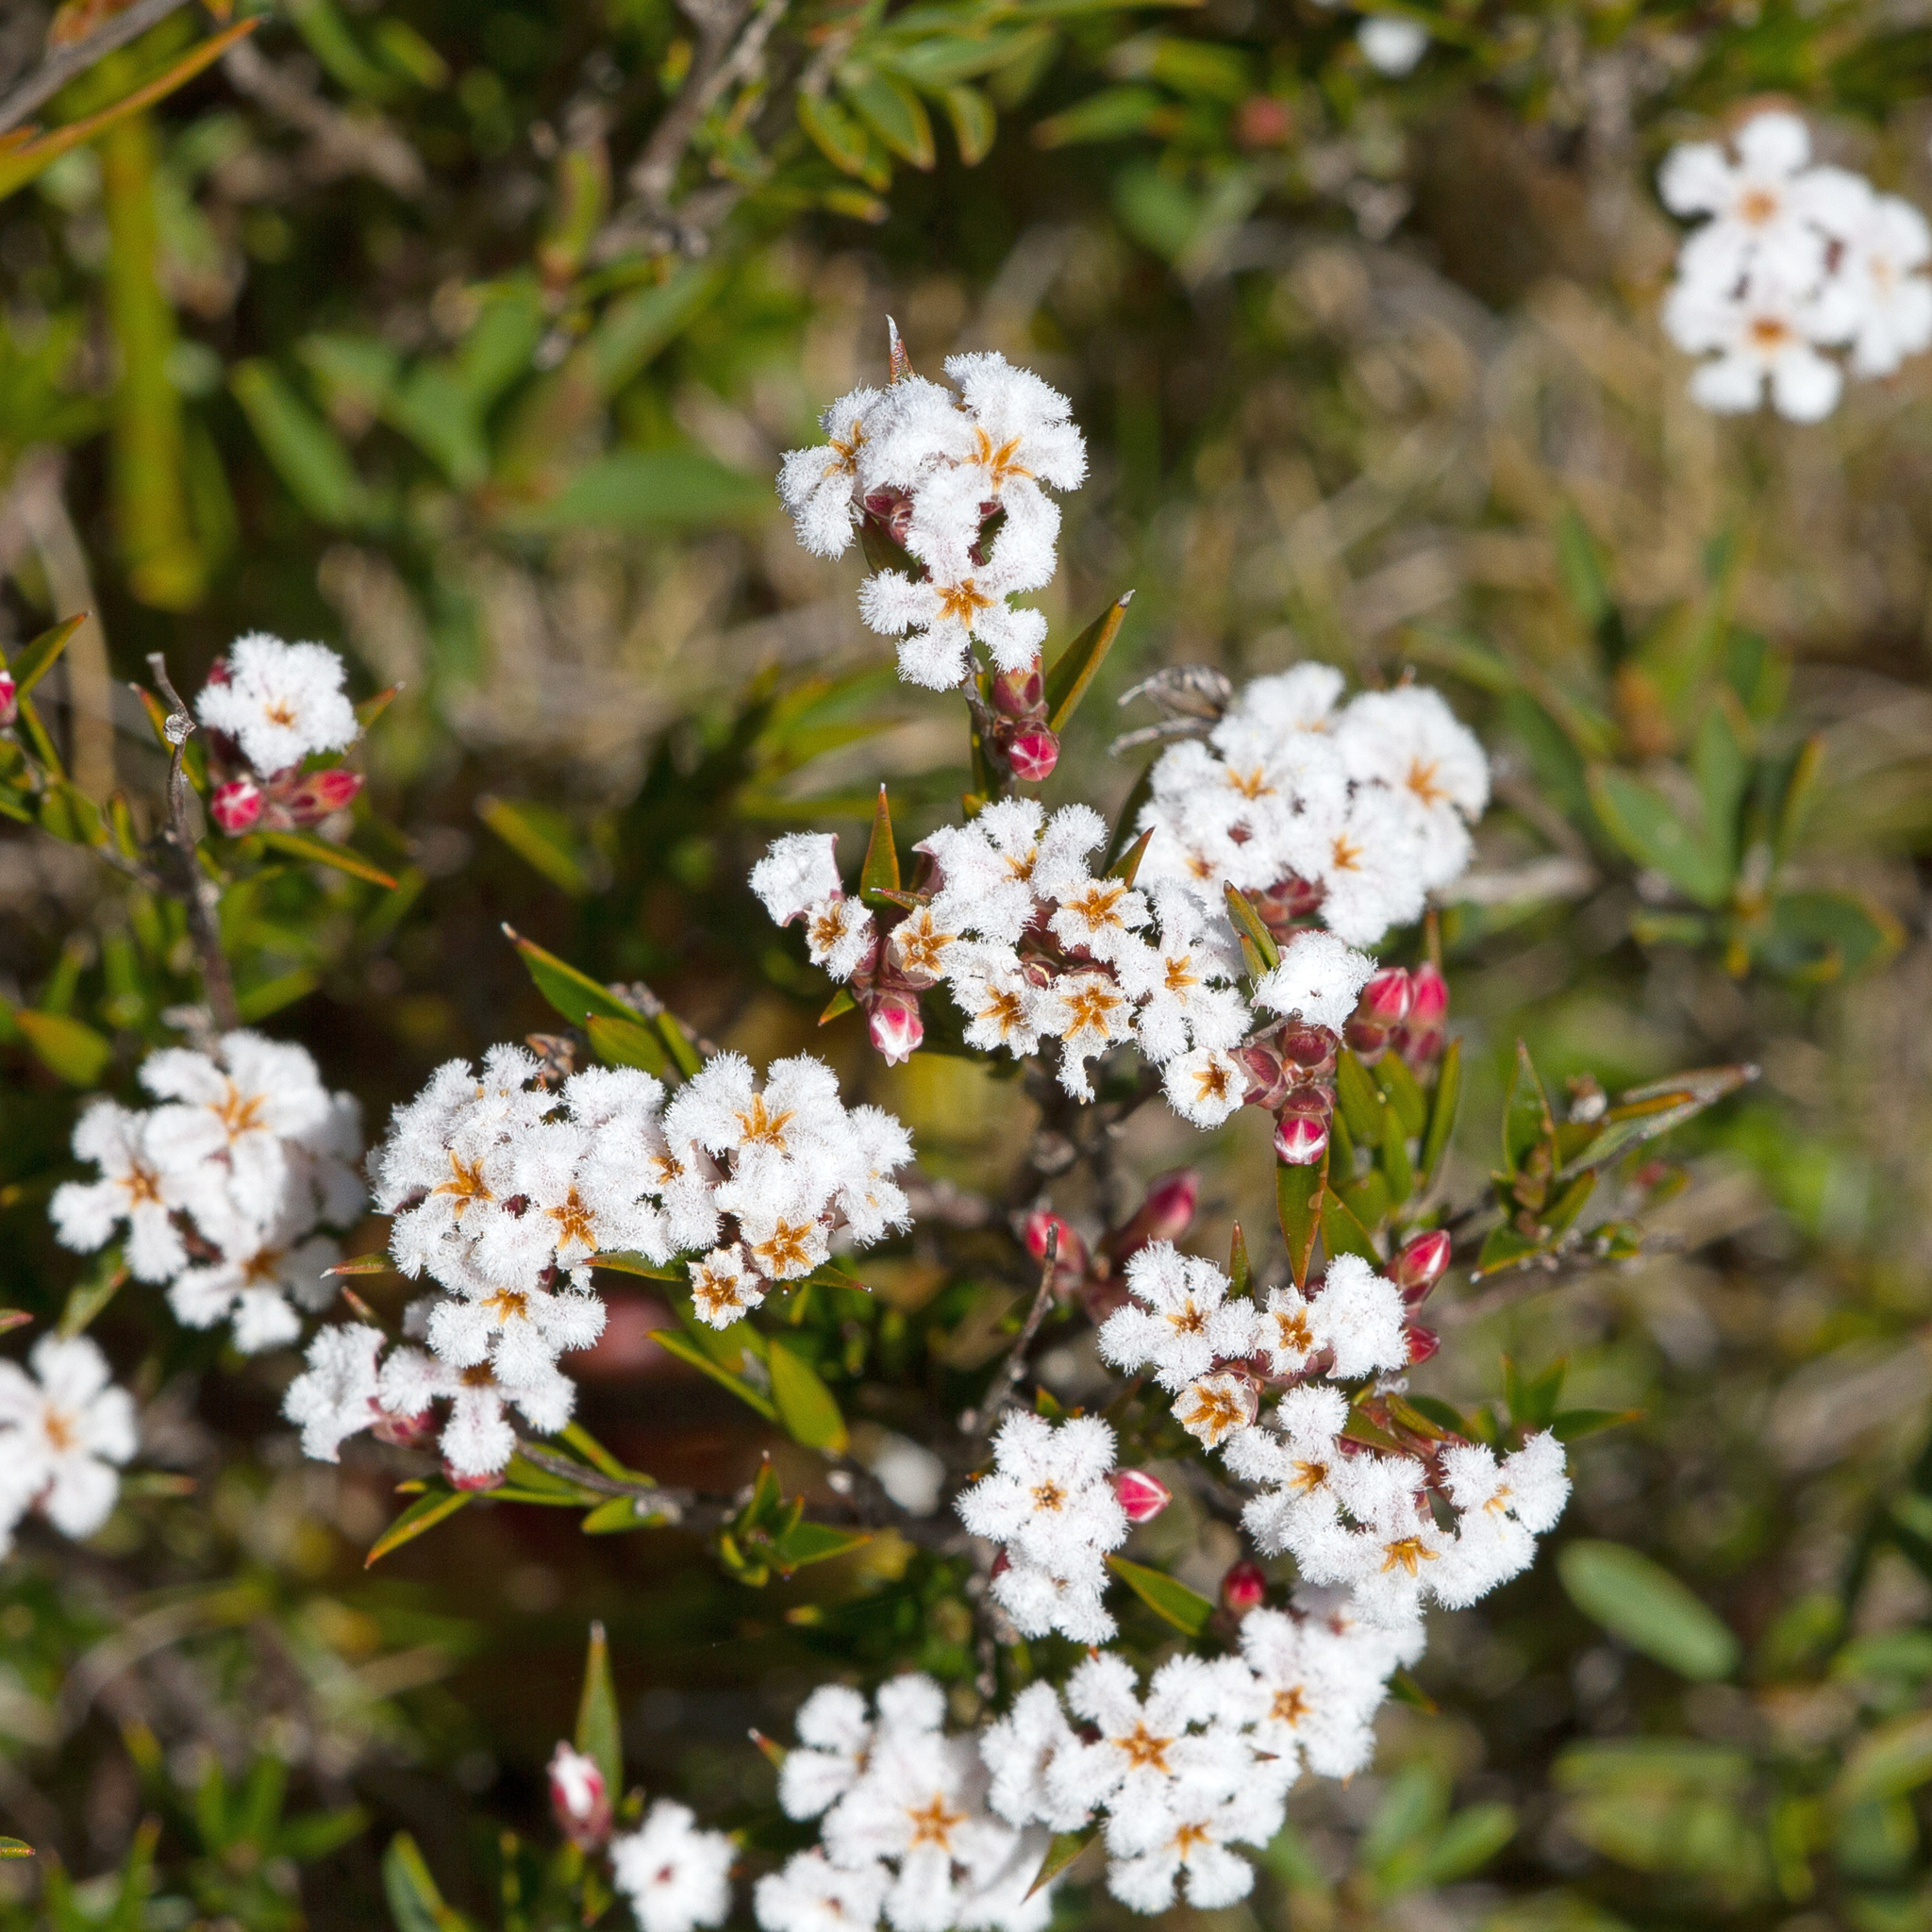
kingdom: Plantae
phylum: Tracheophyta
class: Magnoliopsida
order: Ericales
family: Ericaceae
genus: Leucopogon
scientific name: Leucopogon virgatus
